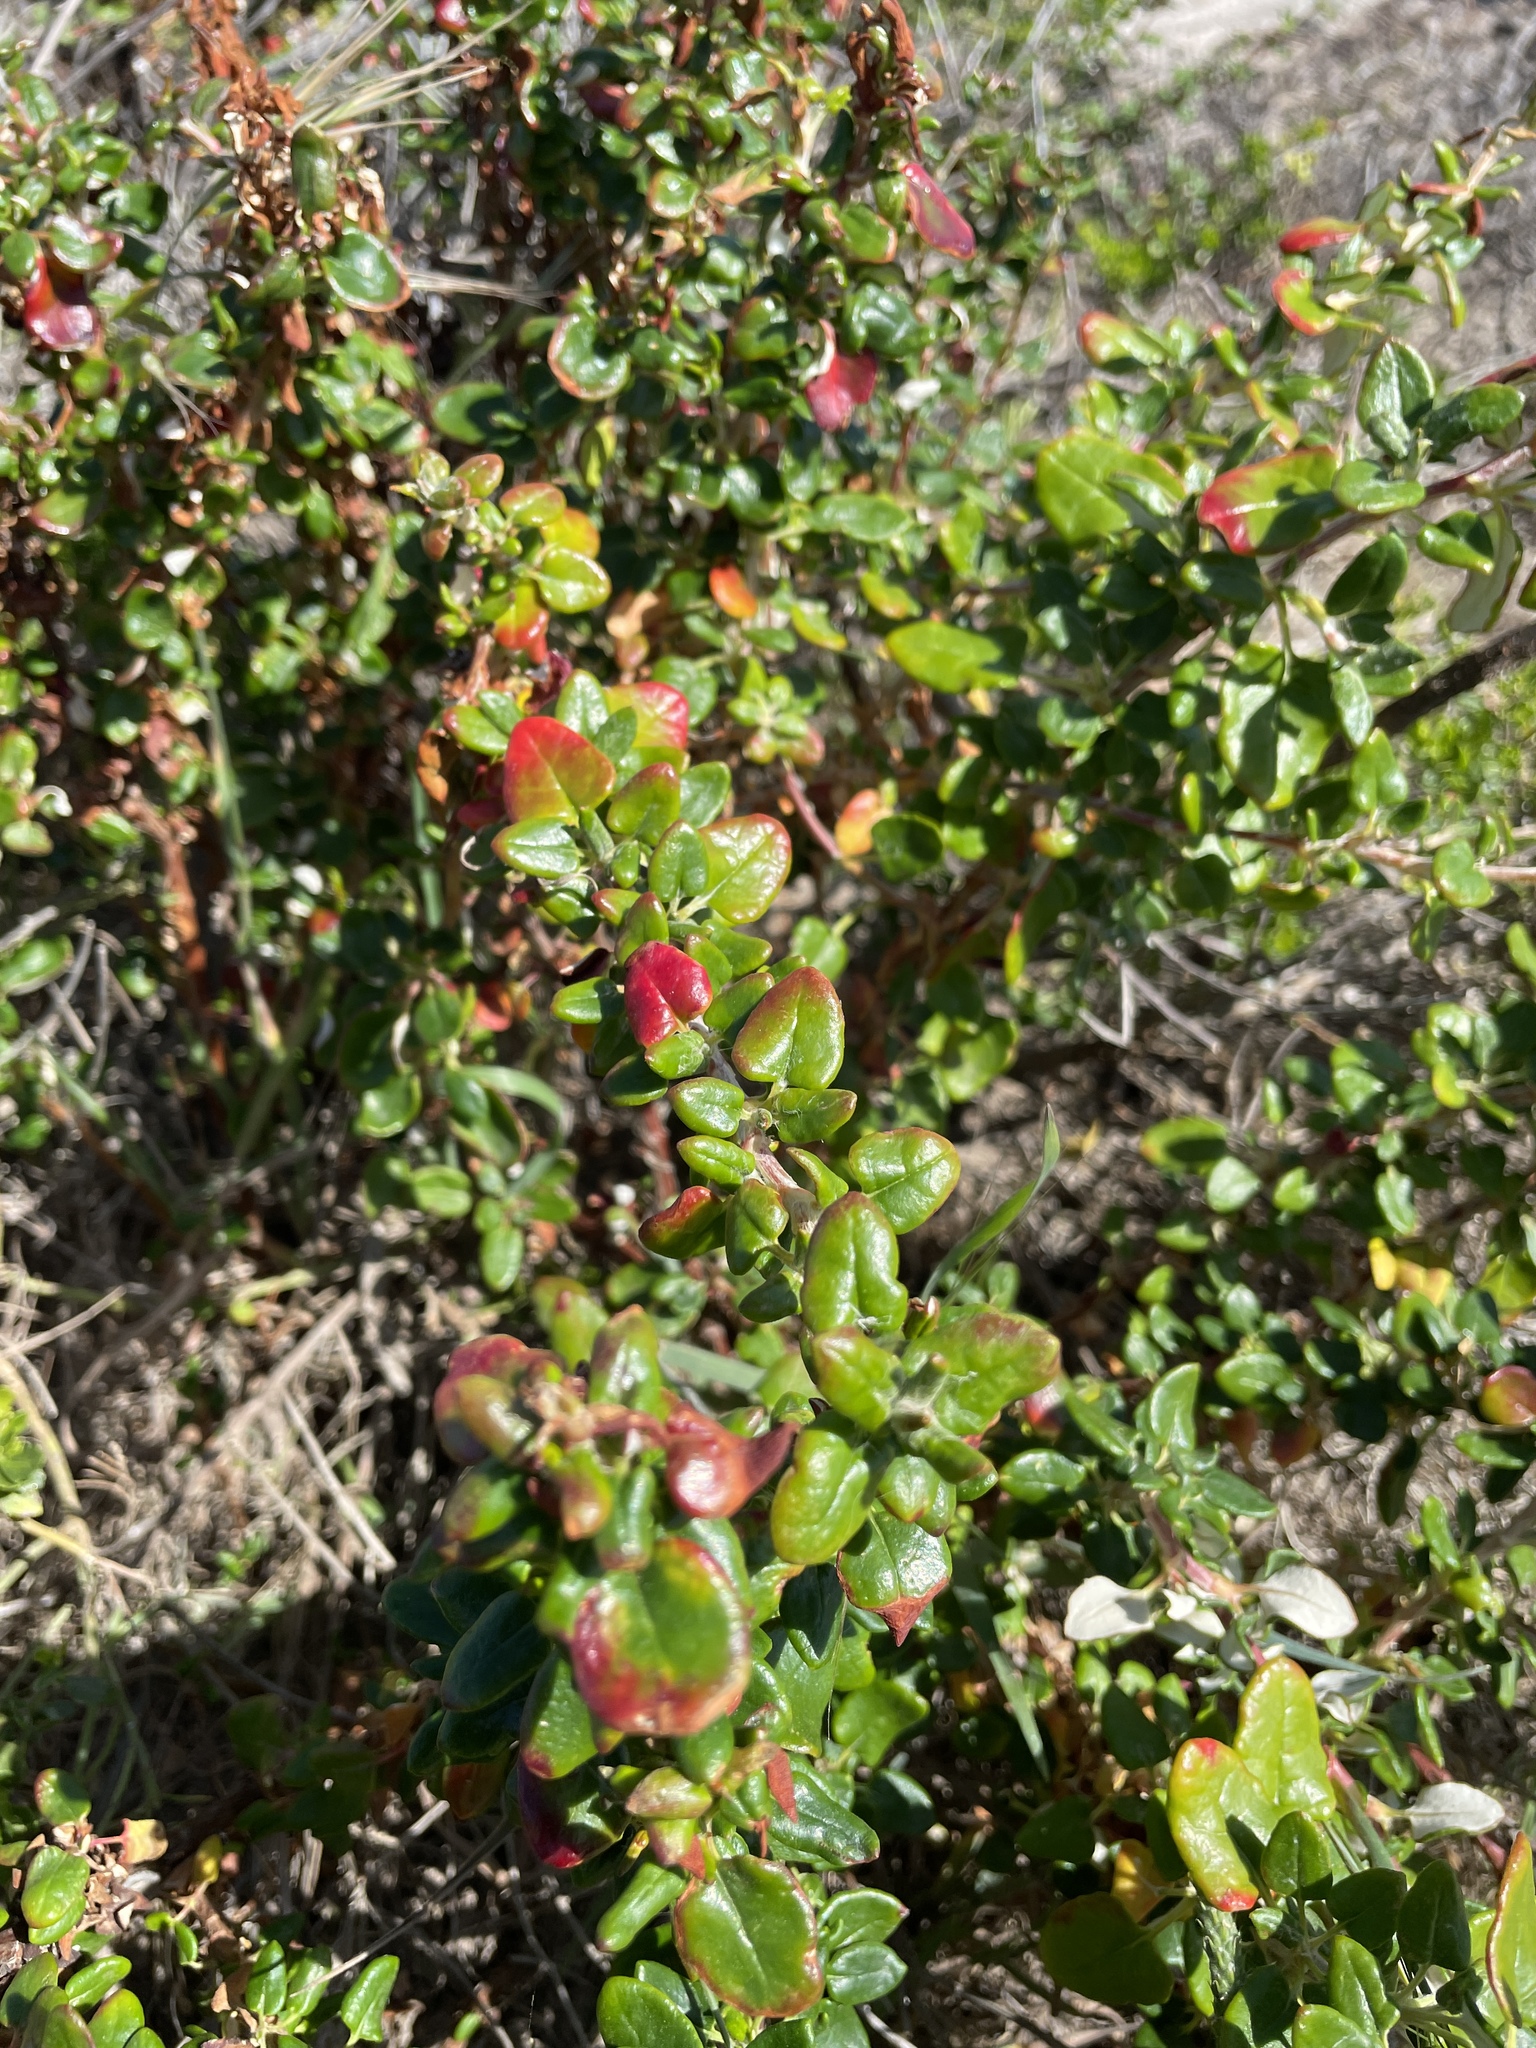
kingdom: Plantae
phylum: Tracheophyta
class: Magnoliopsida
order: Caryophyllales
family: Polygonaceae
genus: Eriogonum
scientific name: Eriogonum parvifolium
